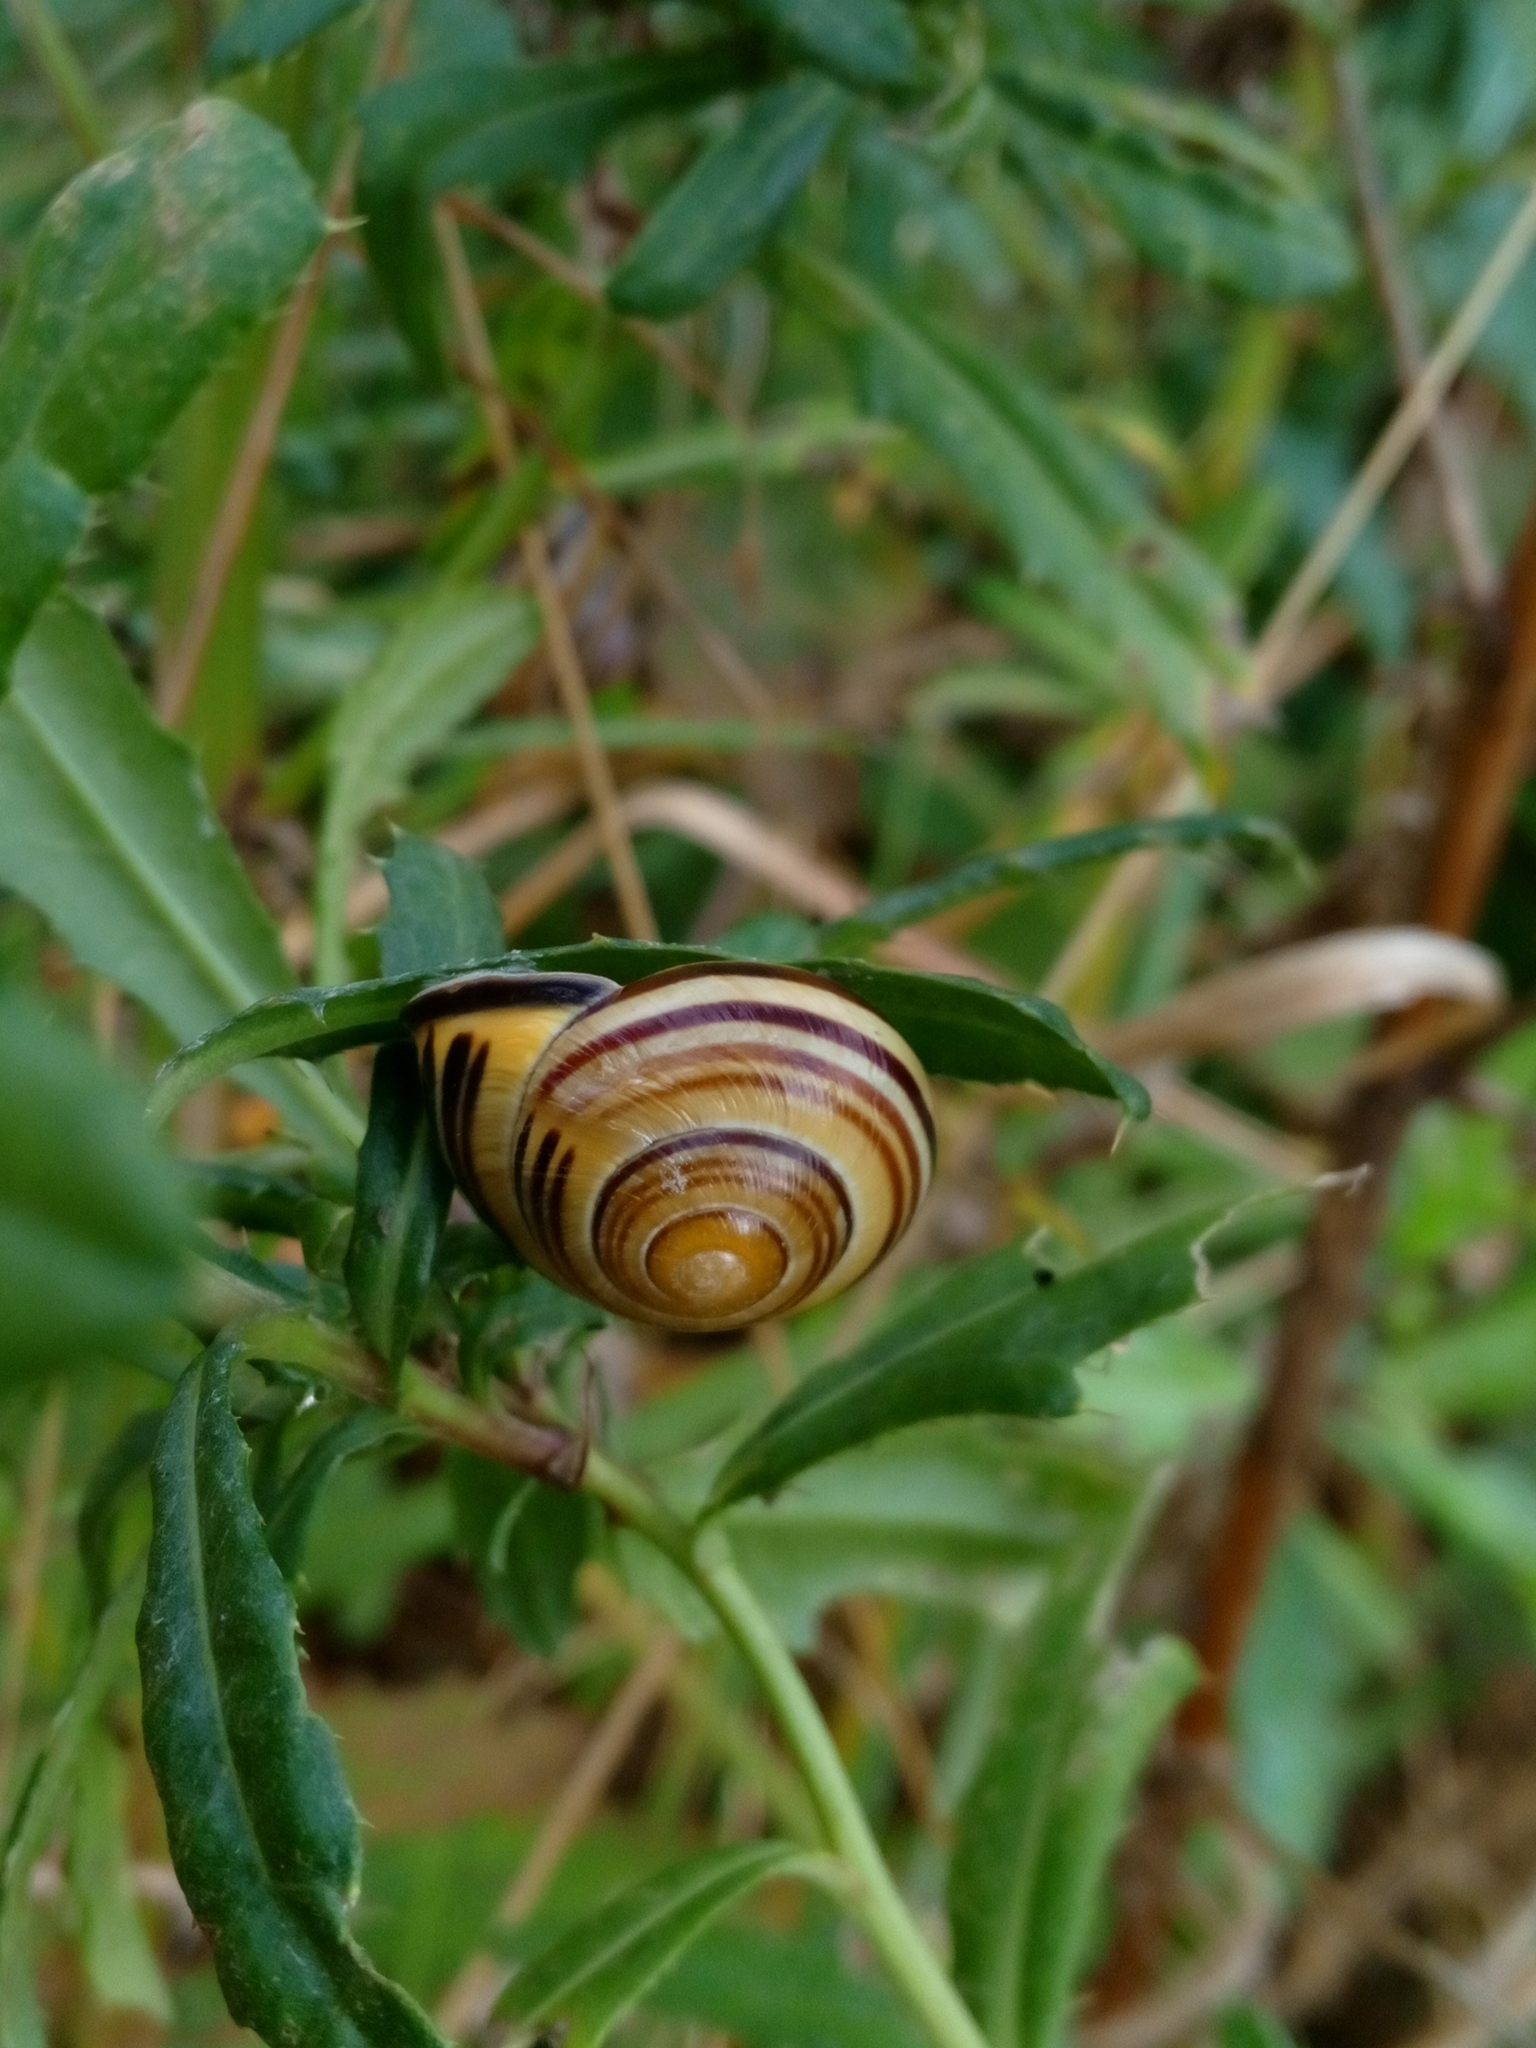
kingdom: Animalia
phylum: Mollusca
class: Gastropoda
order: Stylommatophora
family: Helicidae
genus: Cepaea
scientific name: Cepaea nemoralis
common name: Grovesnail
